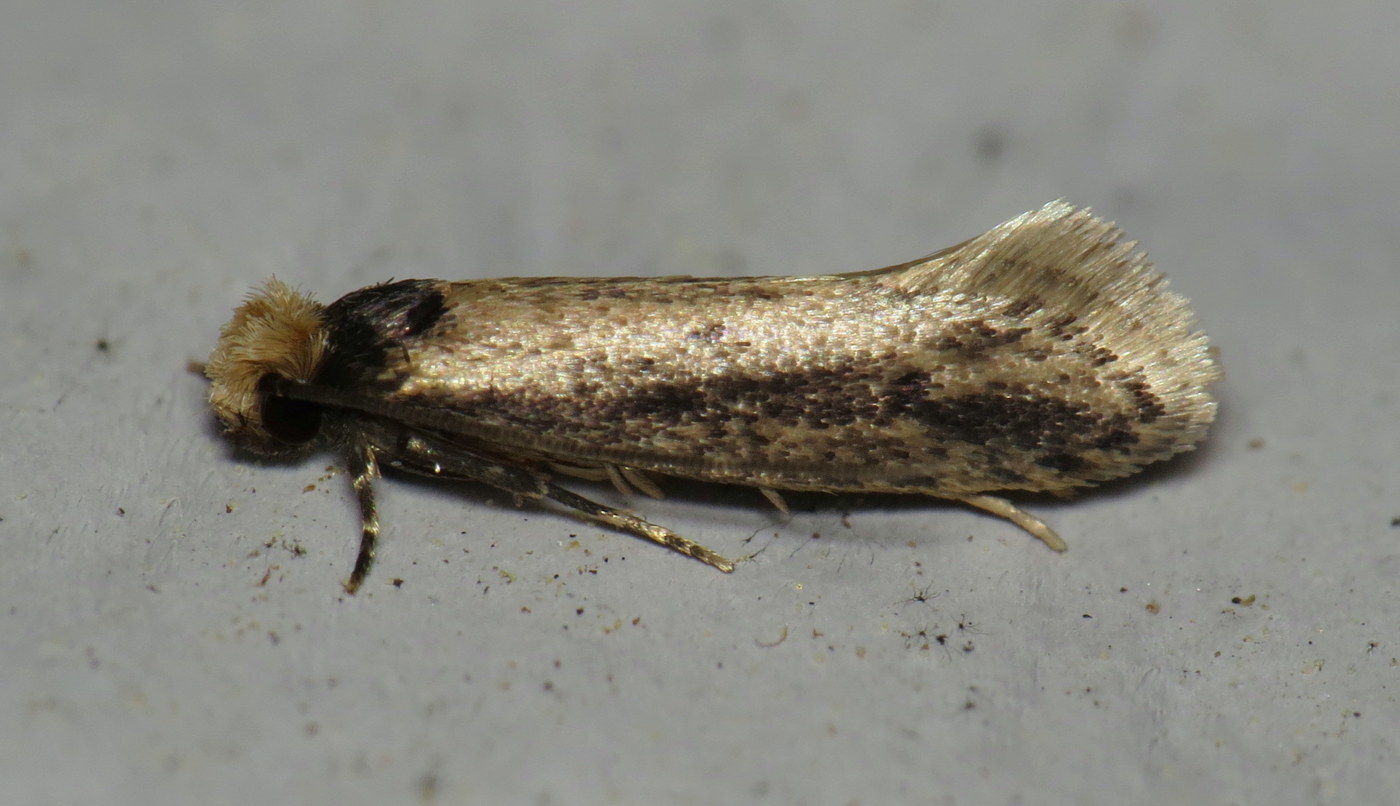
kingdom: Animalia
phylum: Arthropoda
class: Insecta
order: Lepidoptera
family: Tineidae
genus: Tinea
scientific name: Tinea apicimaculella
